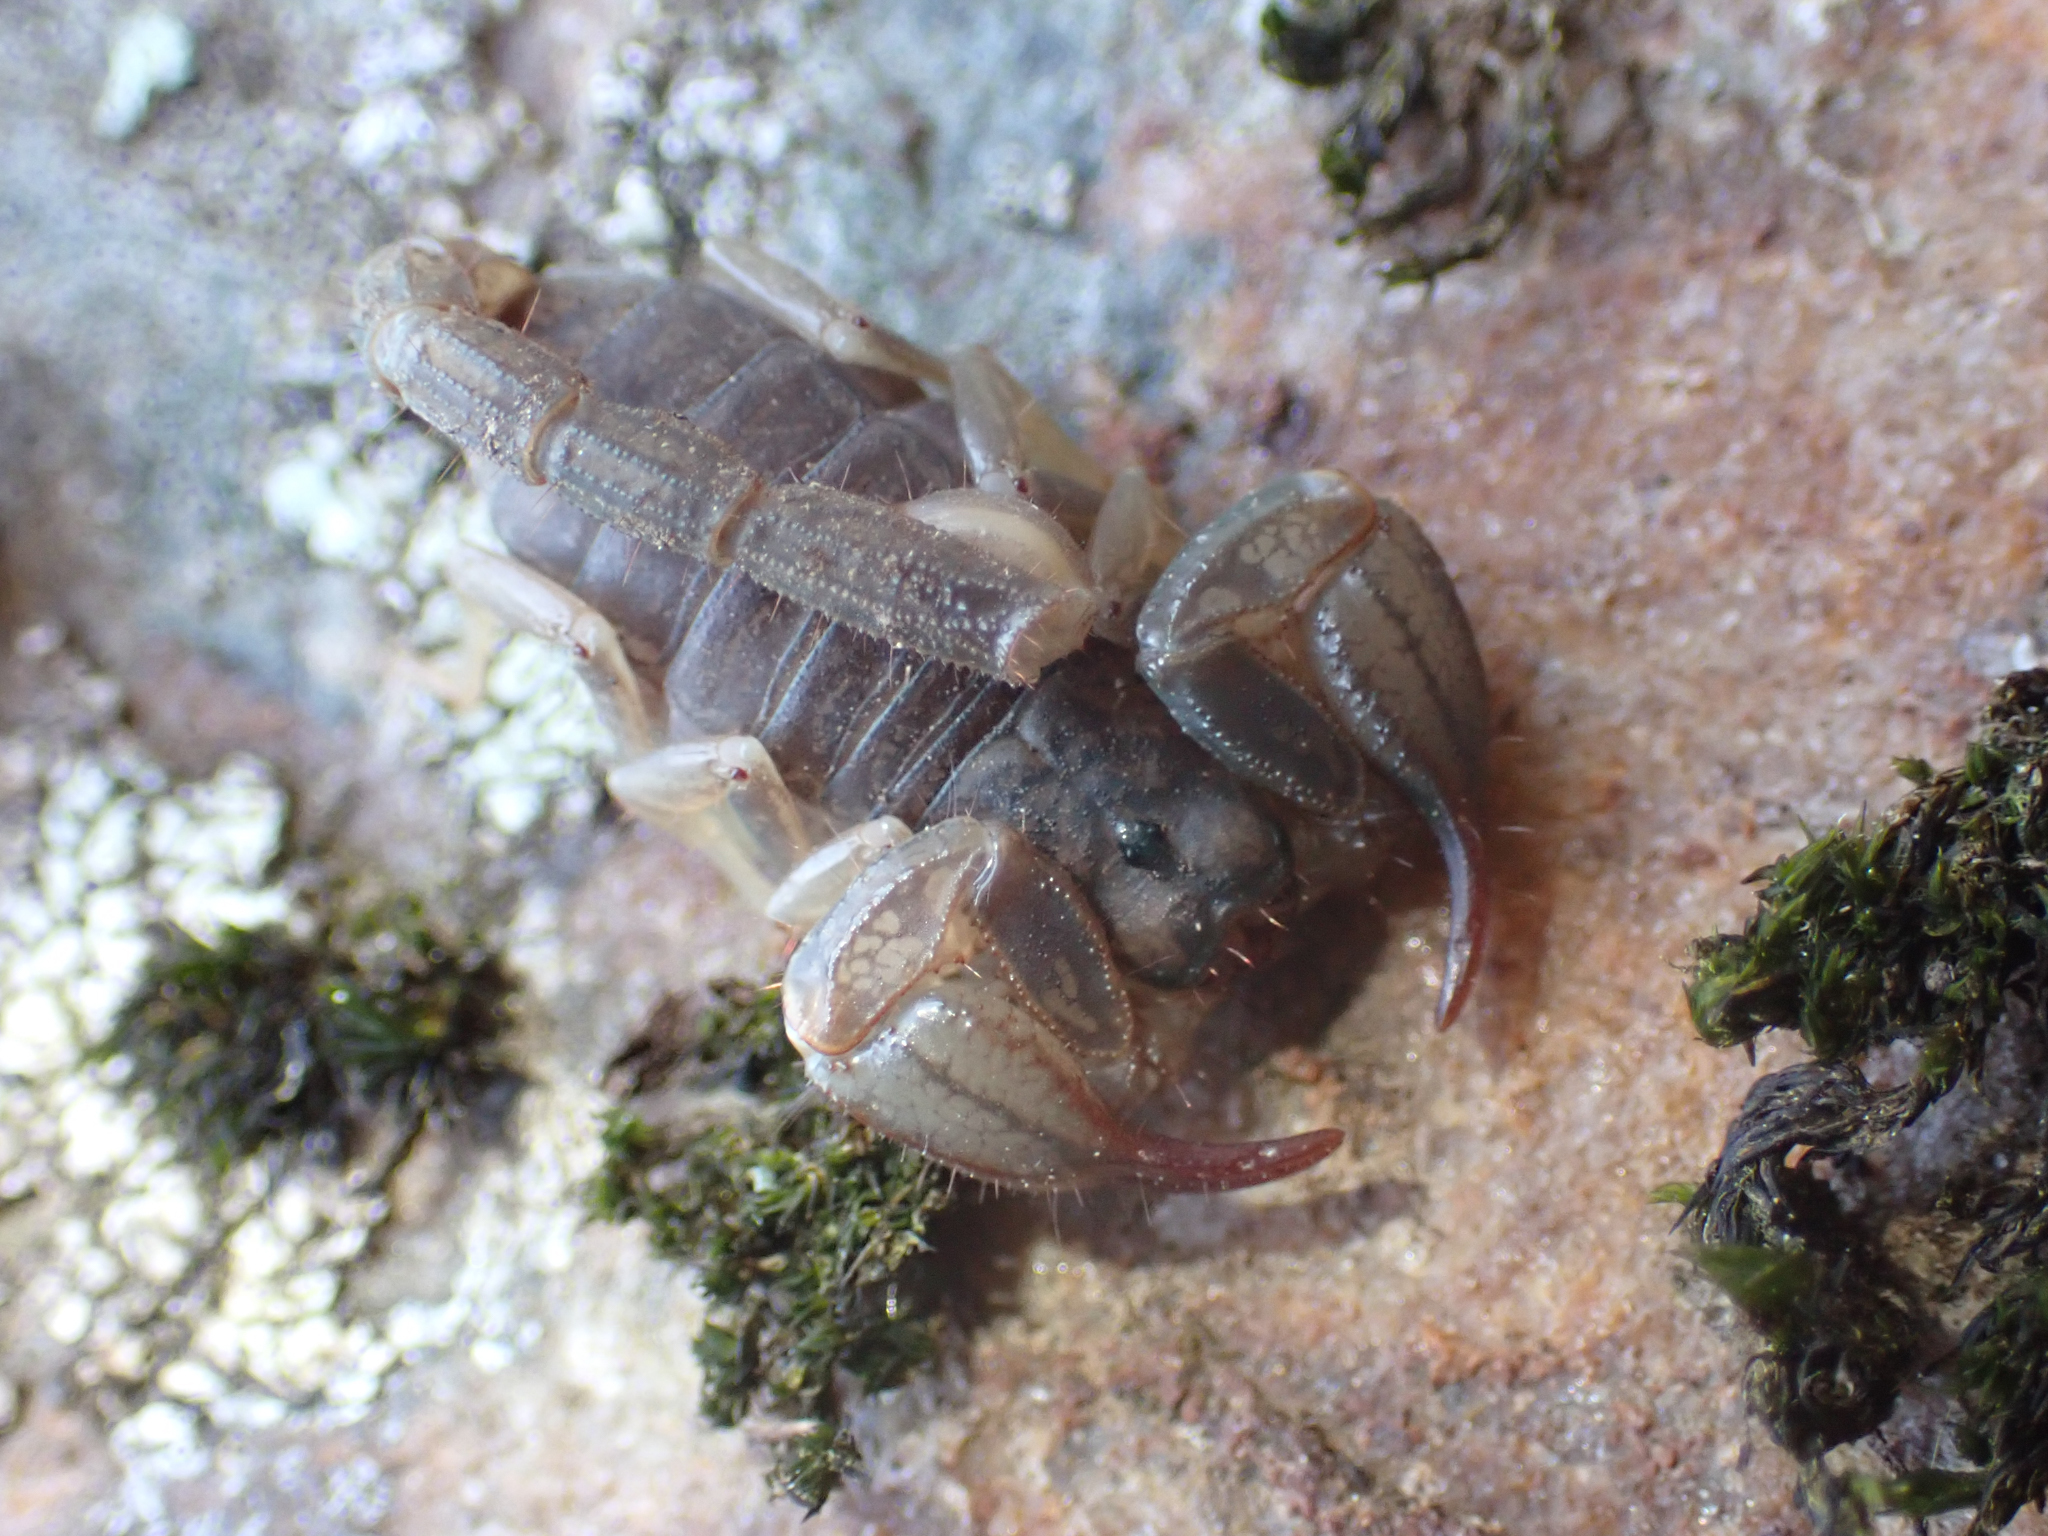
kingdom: Animalia
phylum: Arthropoda
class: Arachnida
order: Scorpiones
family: Chactidae
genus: Uroctonus
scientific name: Uroctonus mordax
